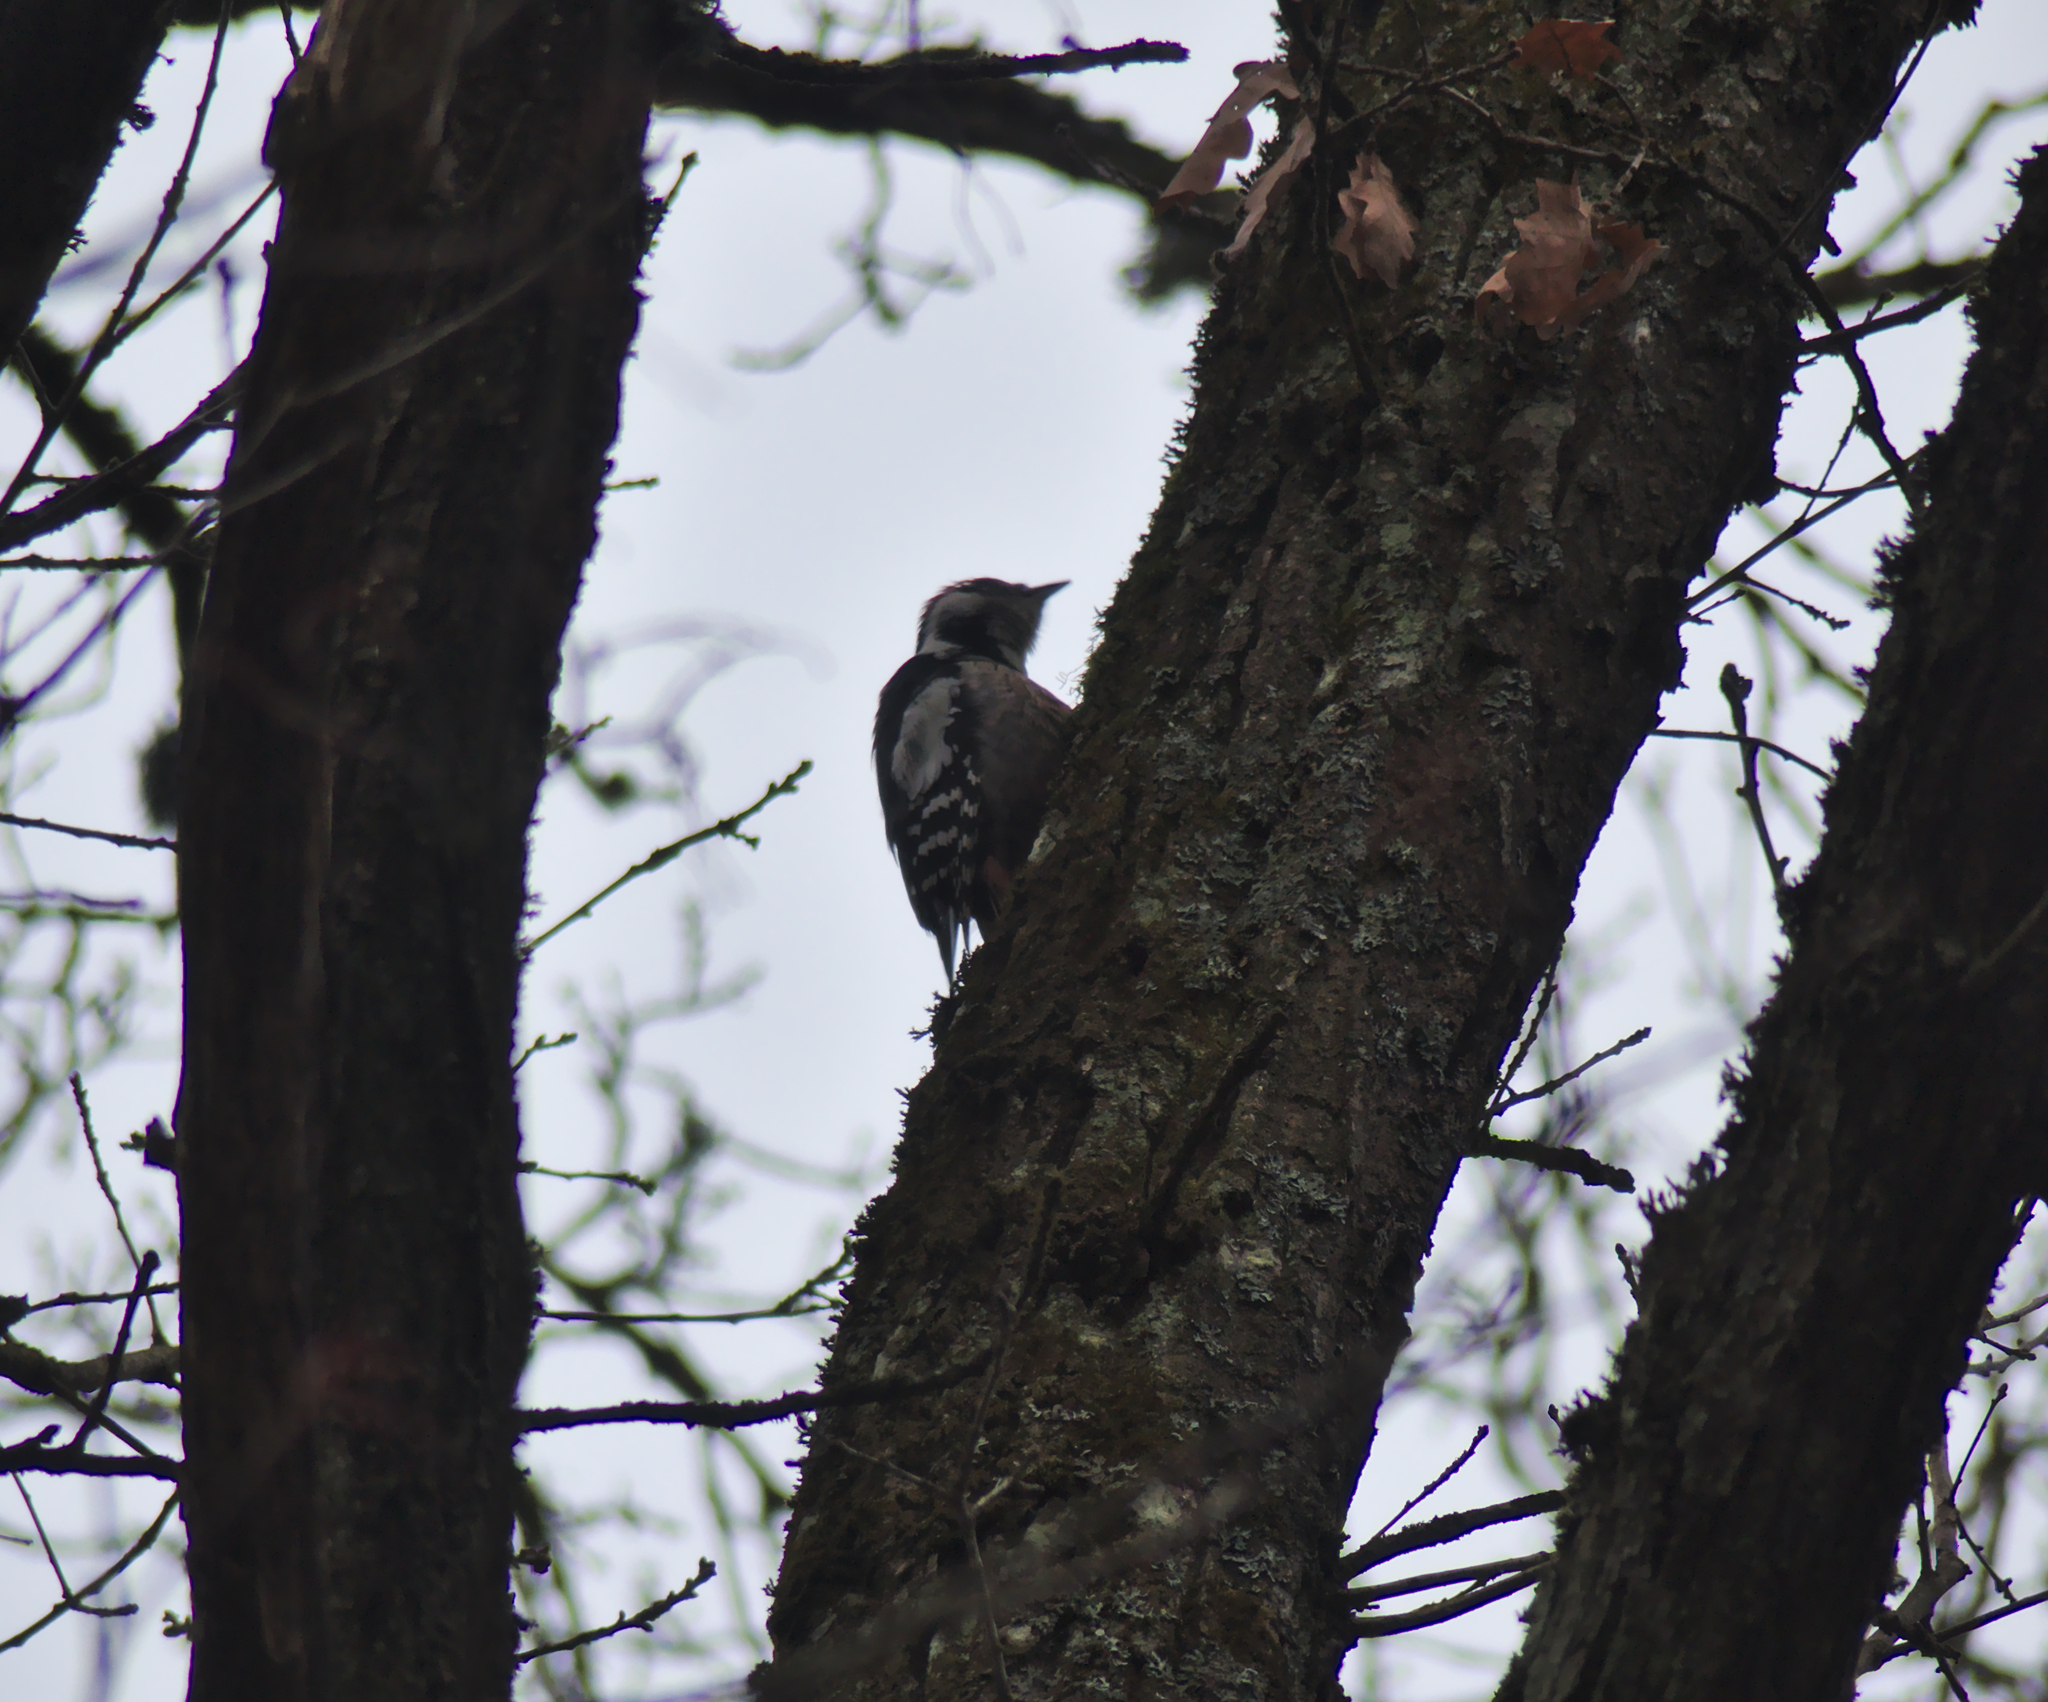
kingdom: Animalia
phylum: Chordata
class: Aves
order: Piciformes
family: Picidae
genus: Dendrocoptes
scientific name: Dendrocoptes medius
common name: Middle spotted woodpecker
